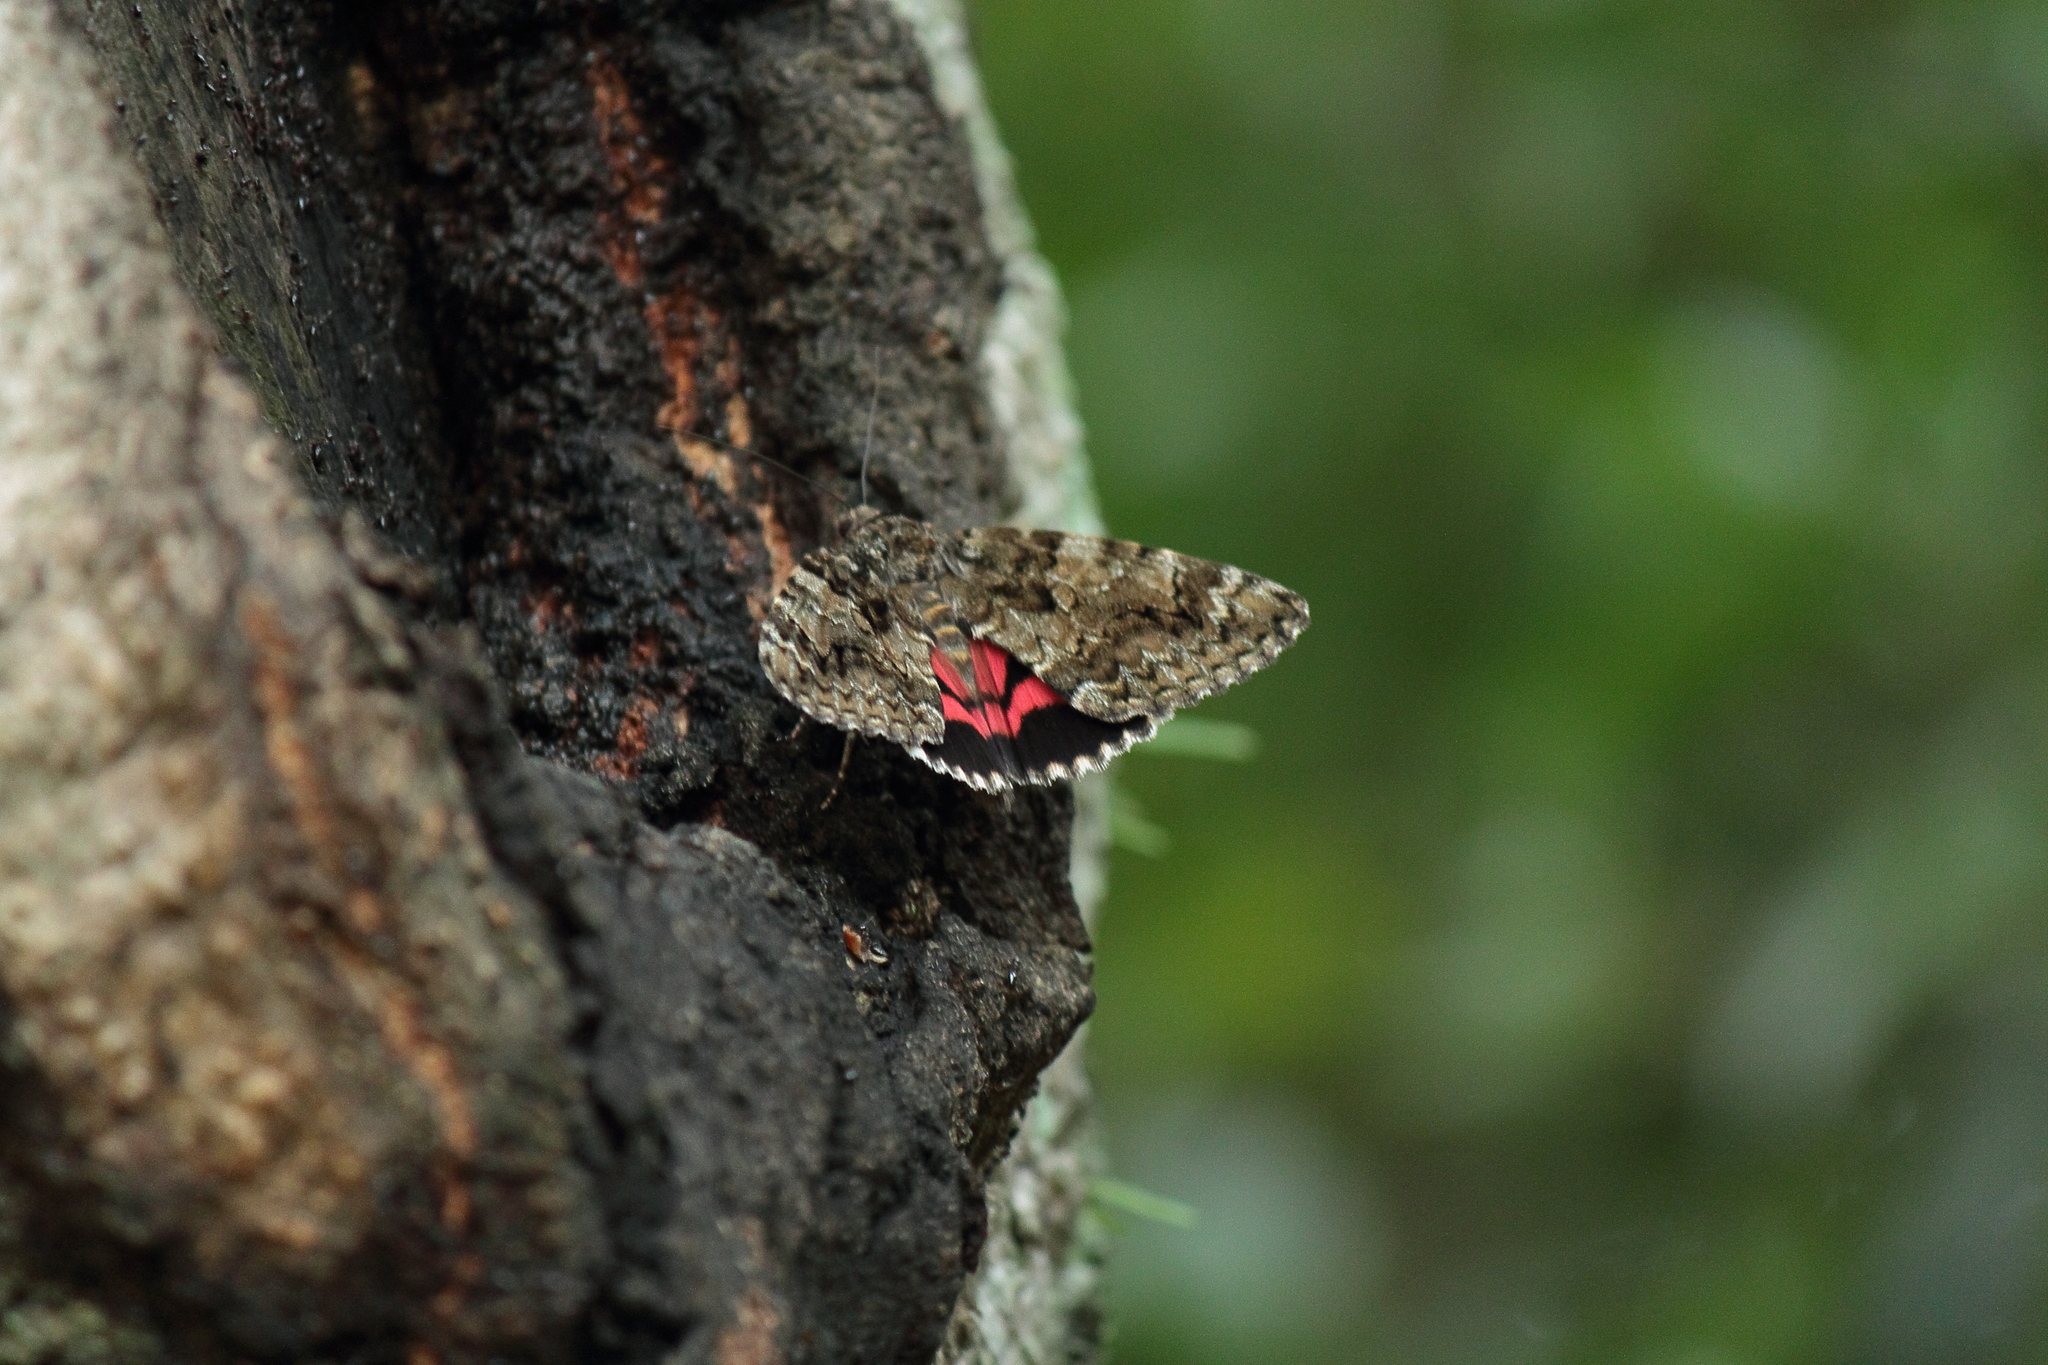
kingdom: Animalia
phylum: Arthropoda
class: Insecta
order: Lepidoptera
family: Erebidae
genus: Catocala
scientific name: Catocala dula
